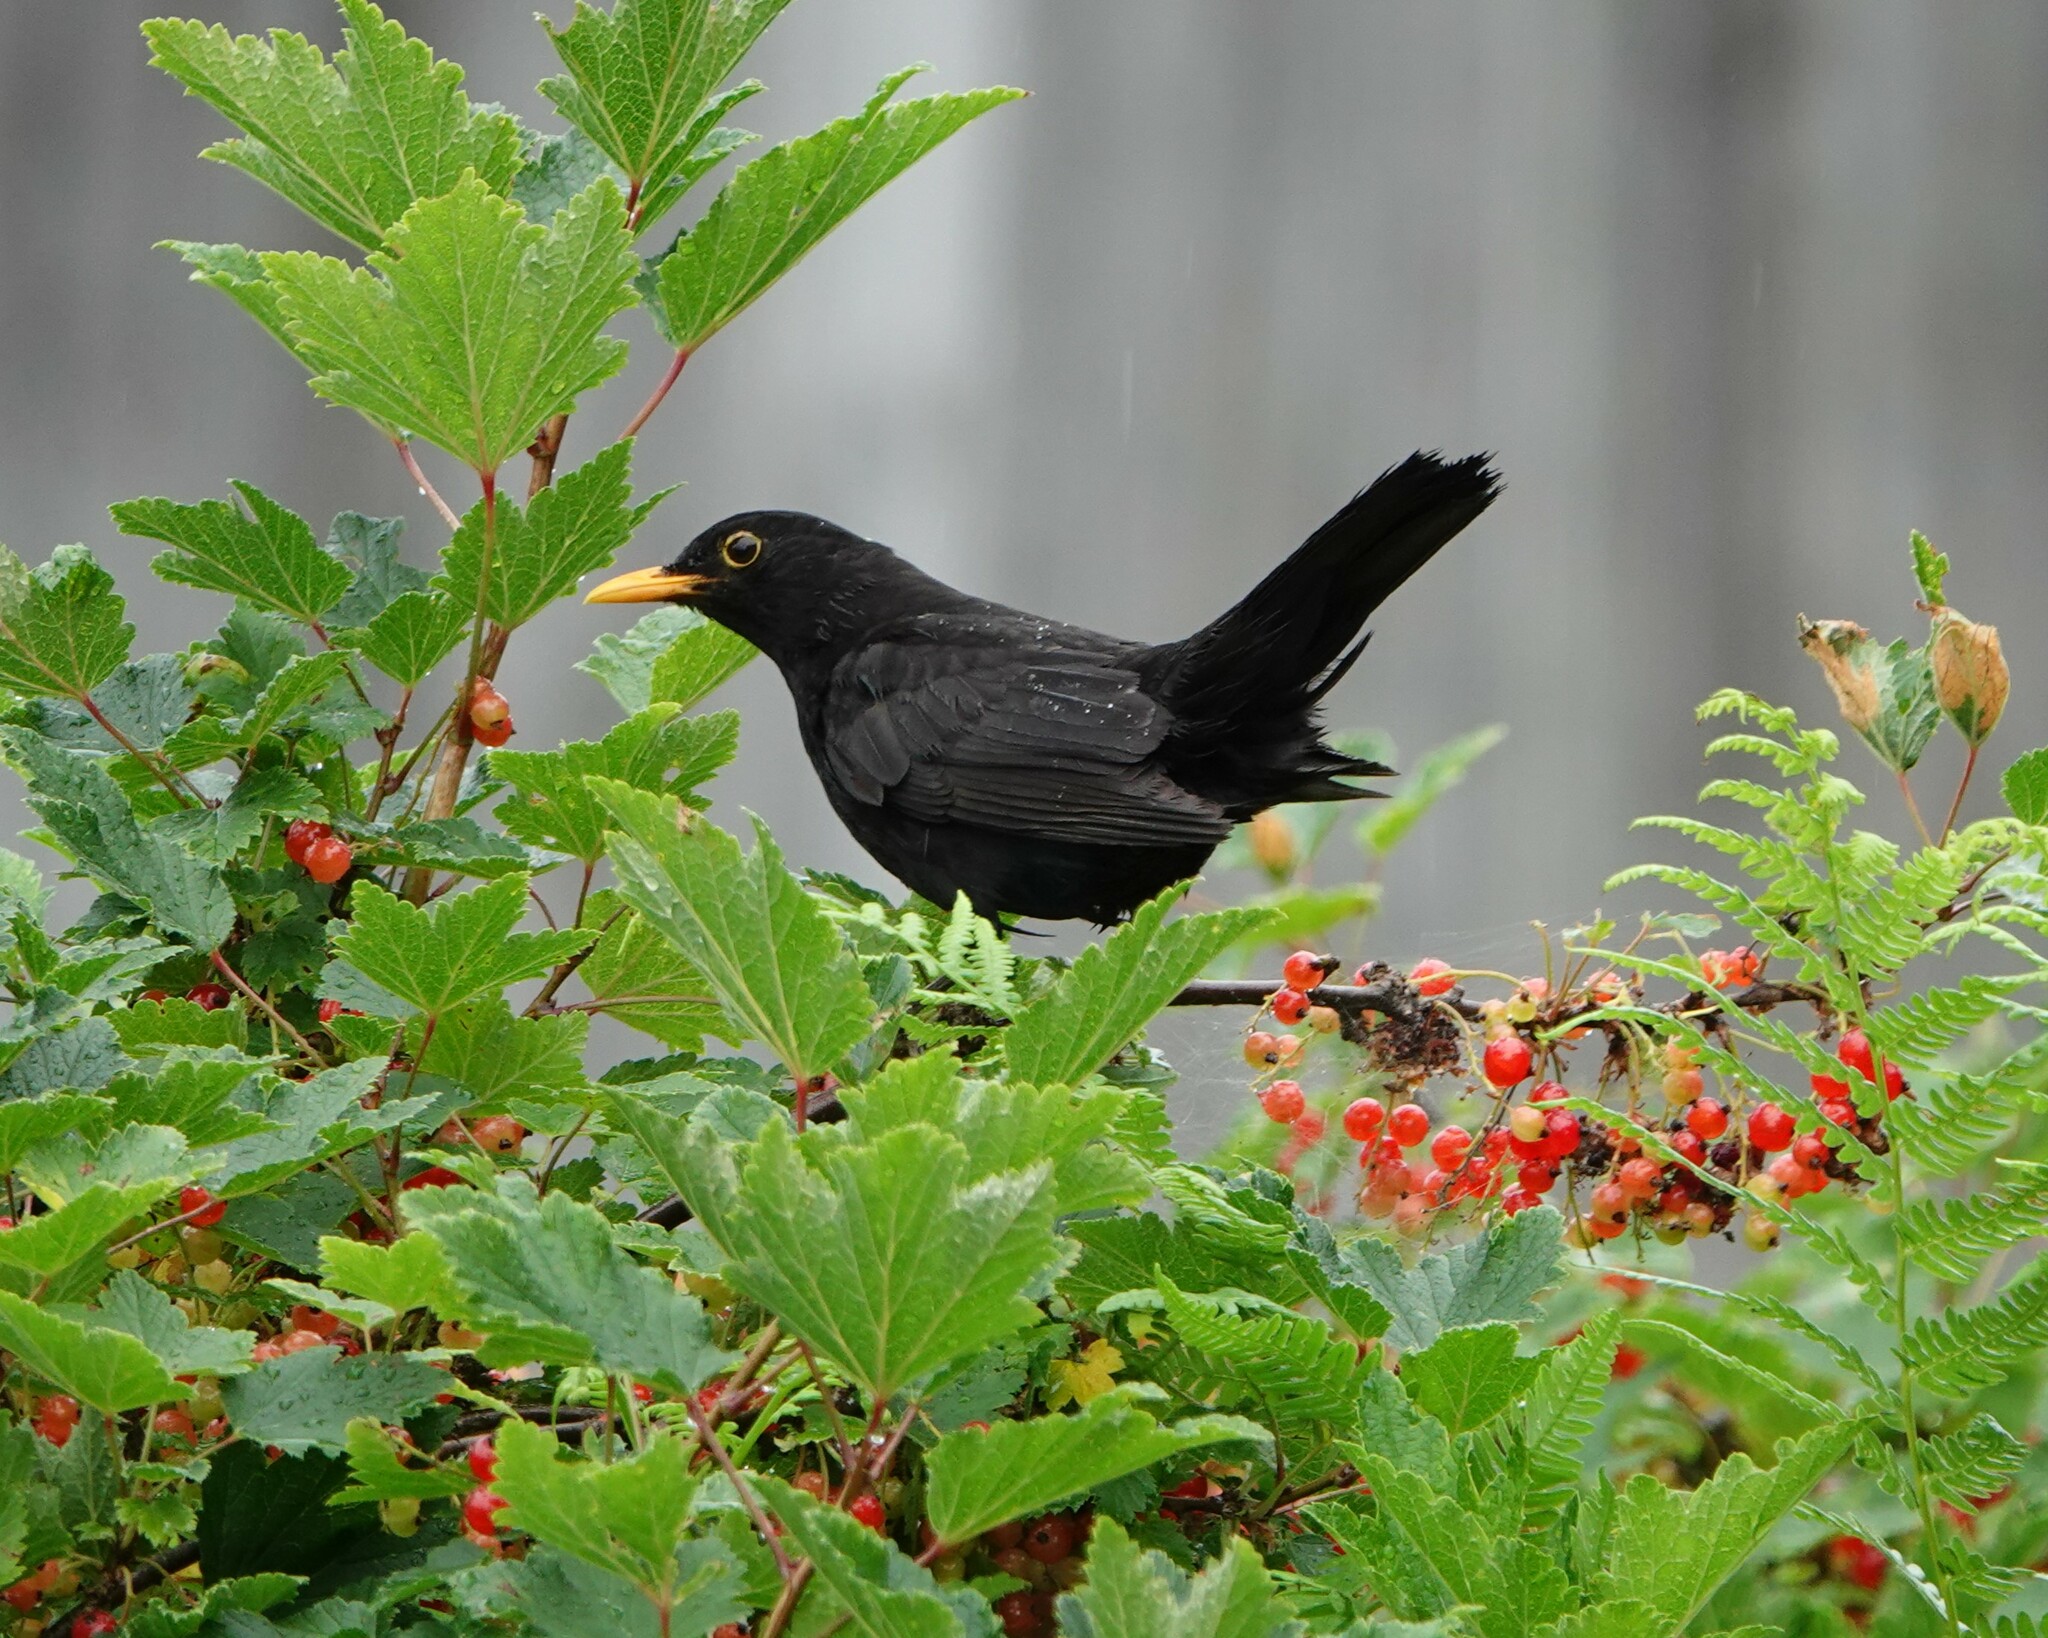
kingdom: Animalia
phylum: Chordata
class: Aves
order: Passeriformes
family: Turdidae
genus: Turdus
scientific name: Turdus merula
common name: Common blackbird
